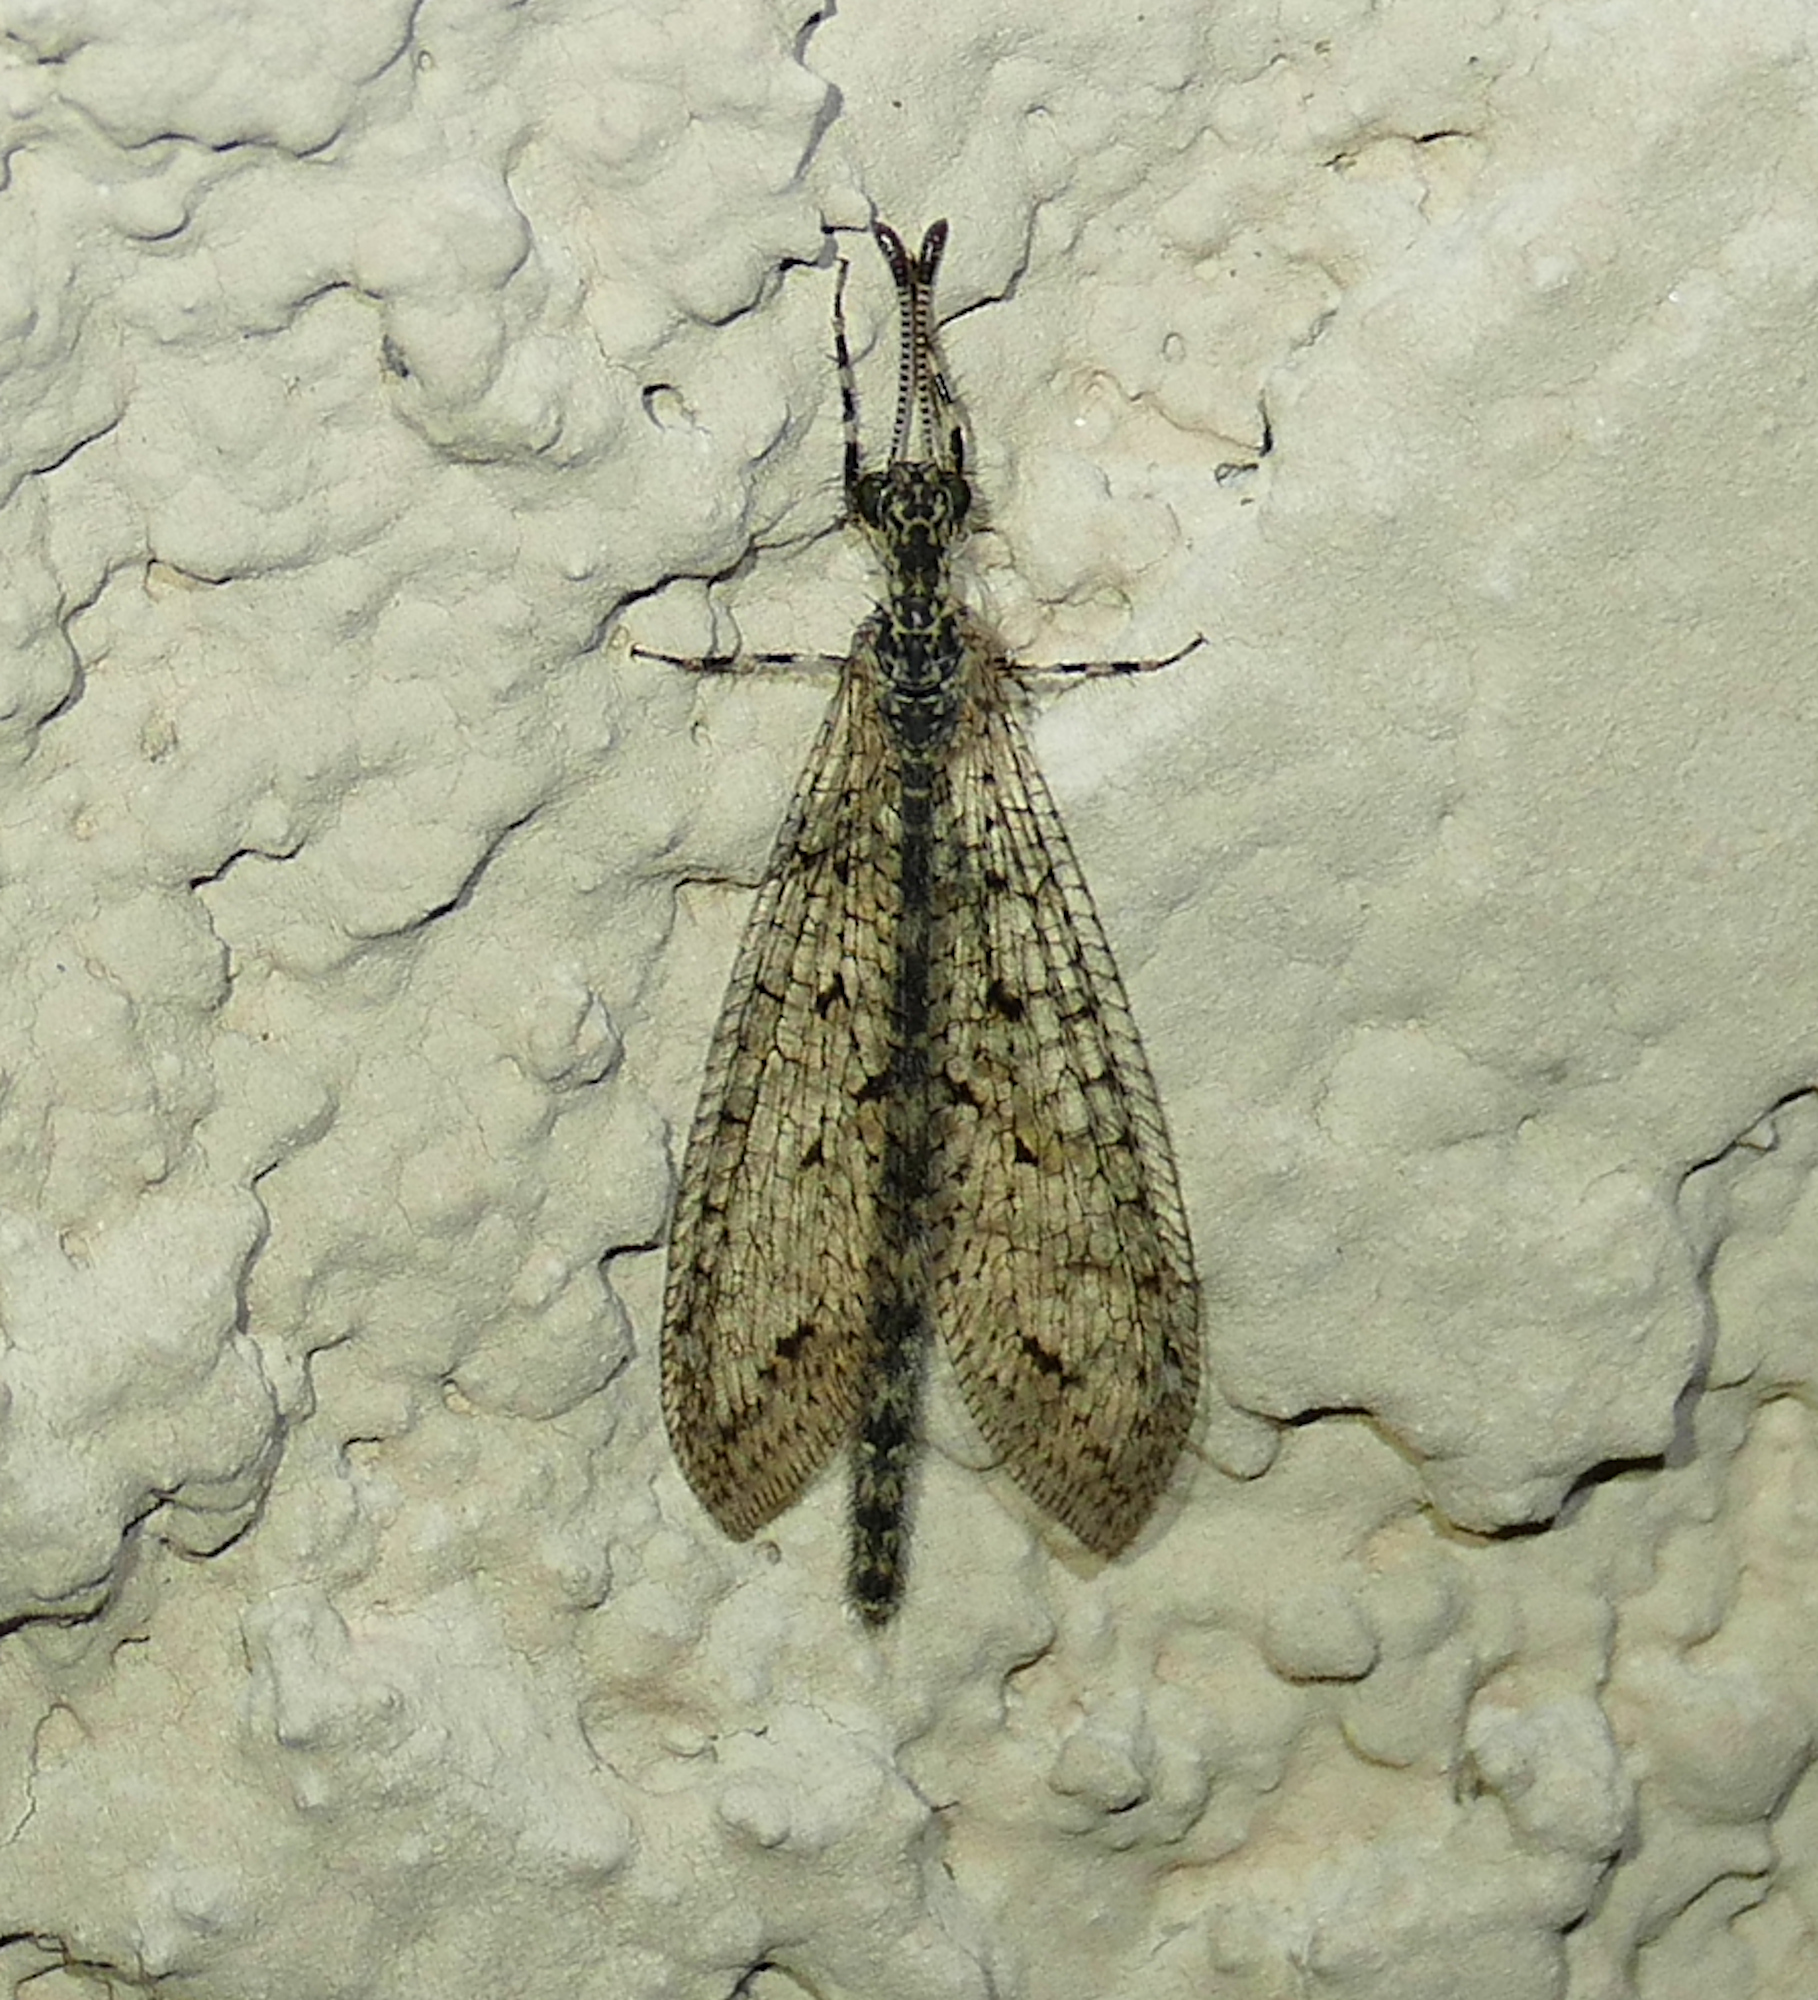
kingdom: Animalia
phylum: Arthropoda
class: Insecta
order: Neuroptera
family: Myrmeleontidae
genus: Chaetoleon
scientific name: Chaetoleon pusillus
